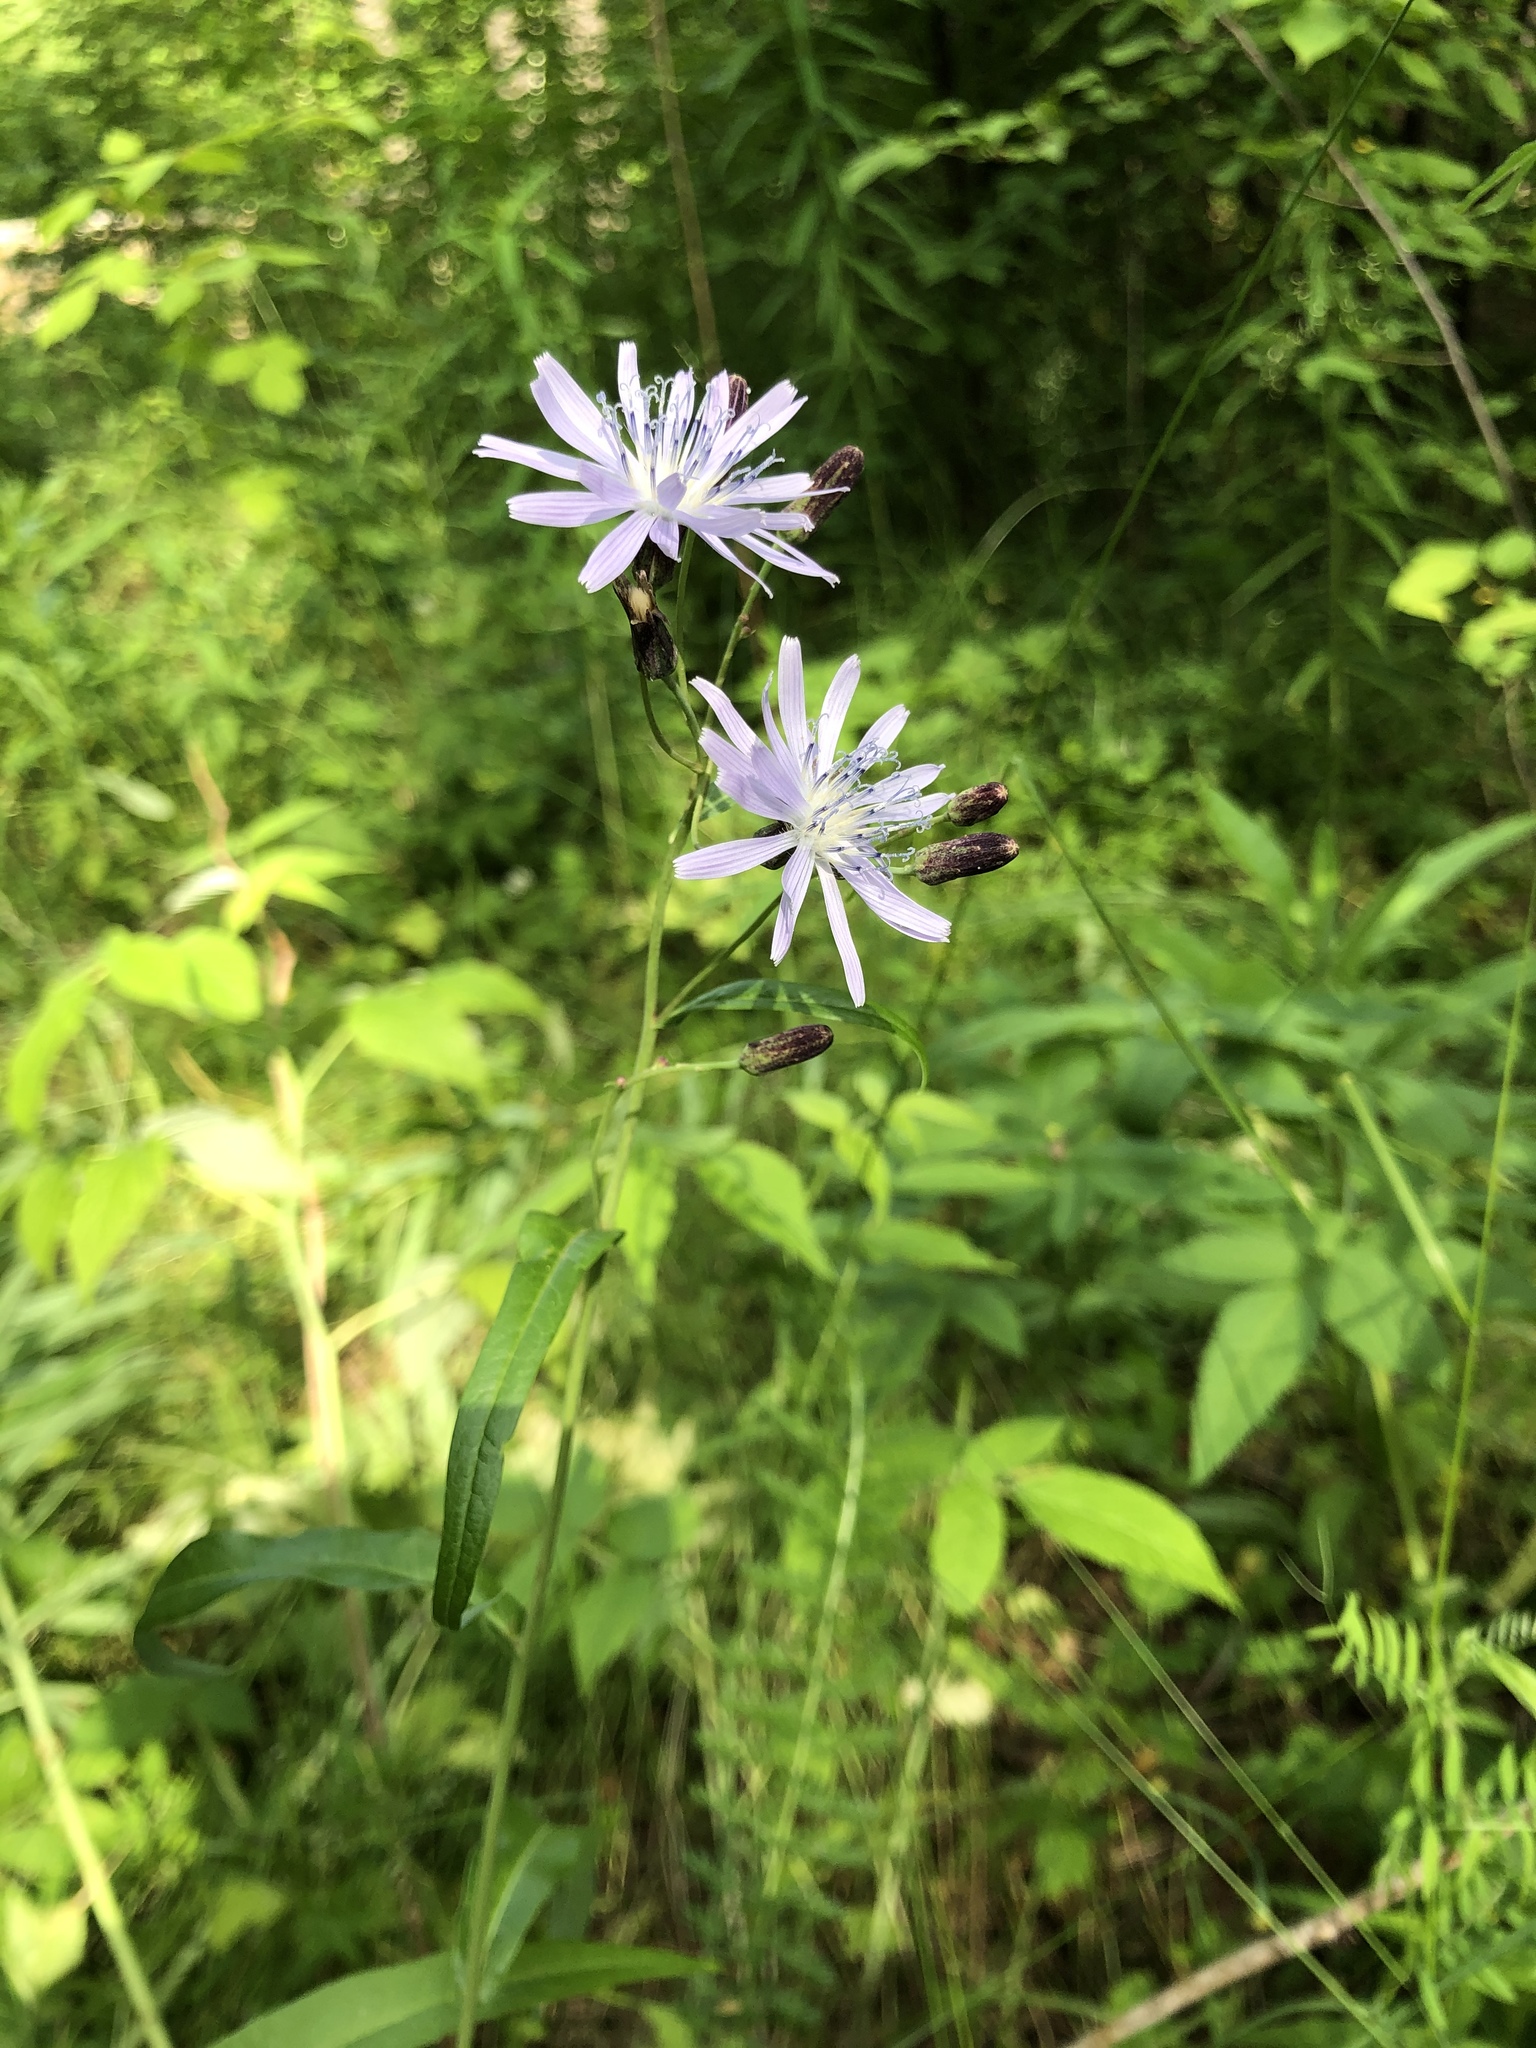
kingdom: Plantae
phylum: Tracheophyta
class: Magnoliopsida
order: Asterales
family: Asteraceae
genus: Lactuca
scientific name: Lactuca sibirica
